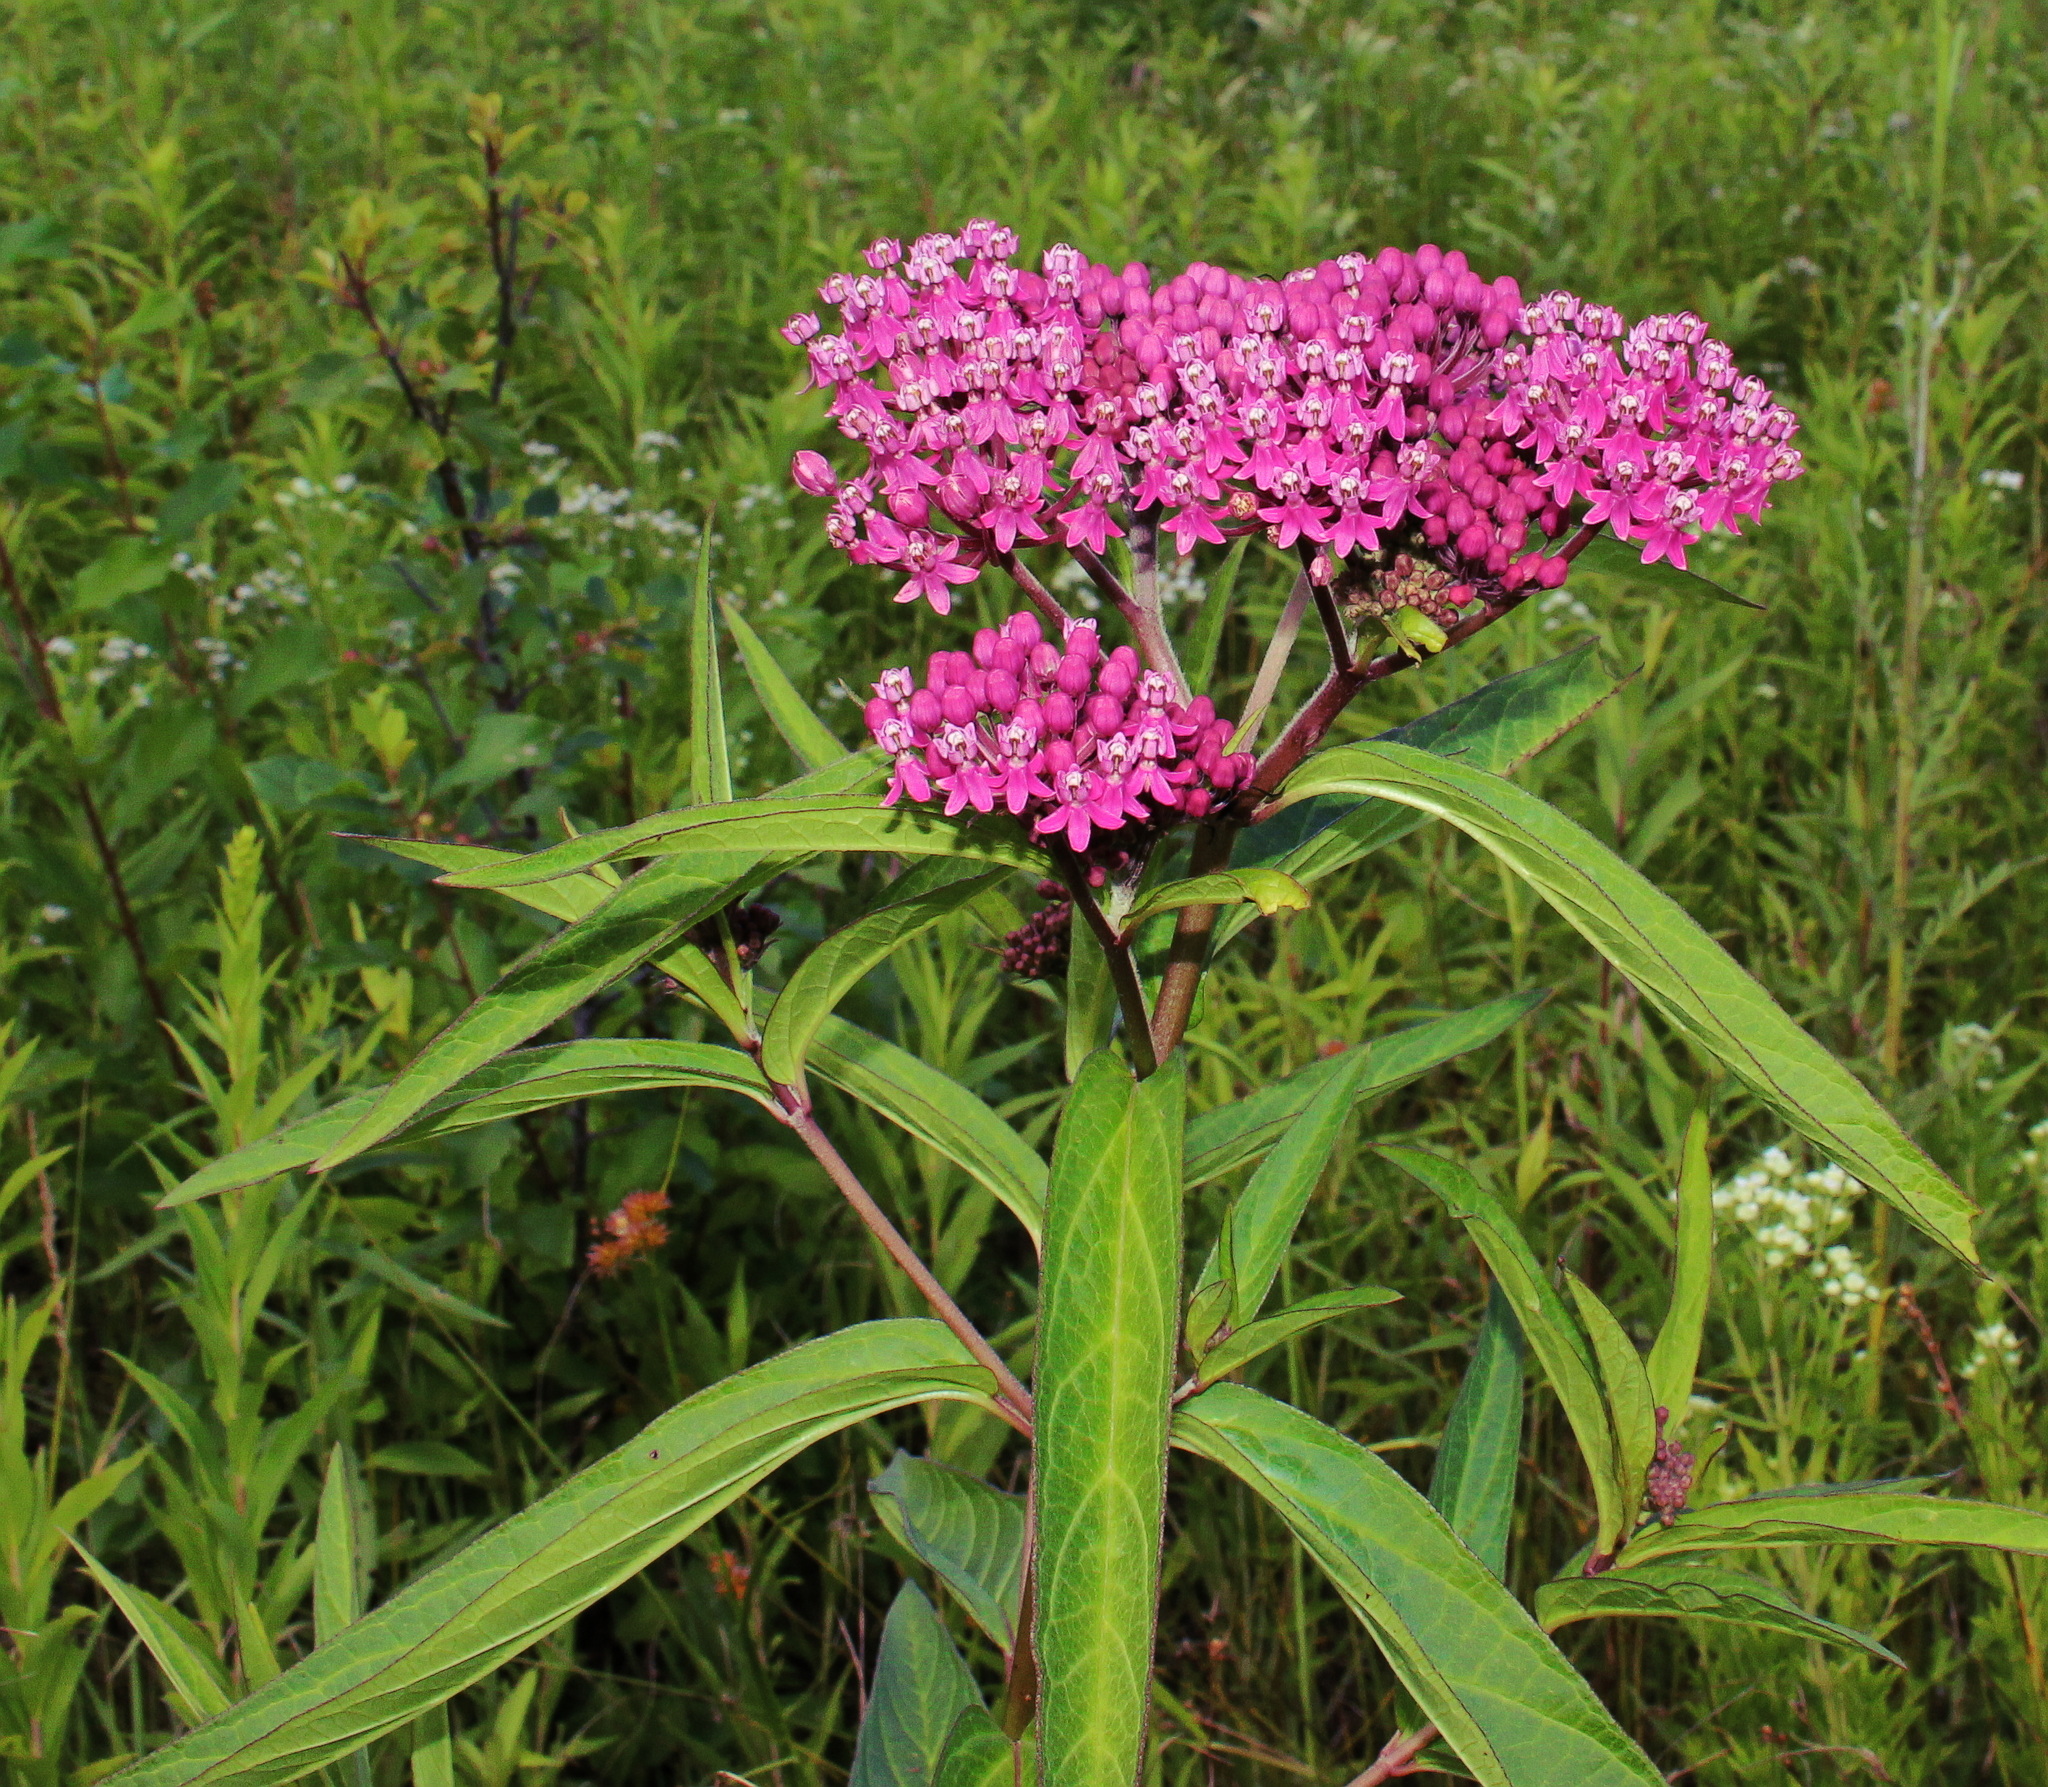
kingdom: Plantae
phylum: Tracheophyta
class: Magnoliopsida
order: Gentianales
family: Apocynaceae
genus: Asclepias
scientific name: Asclepias incarnata
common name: Swamp milkweed
